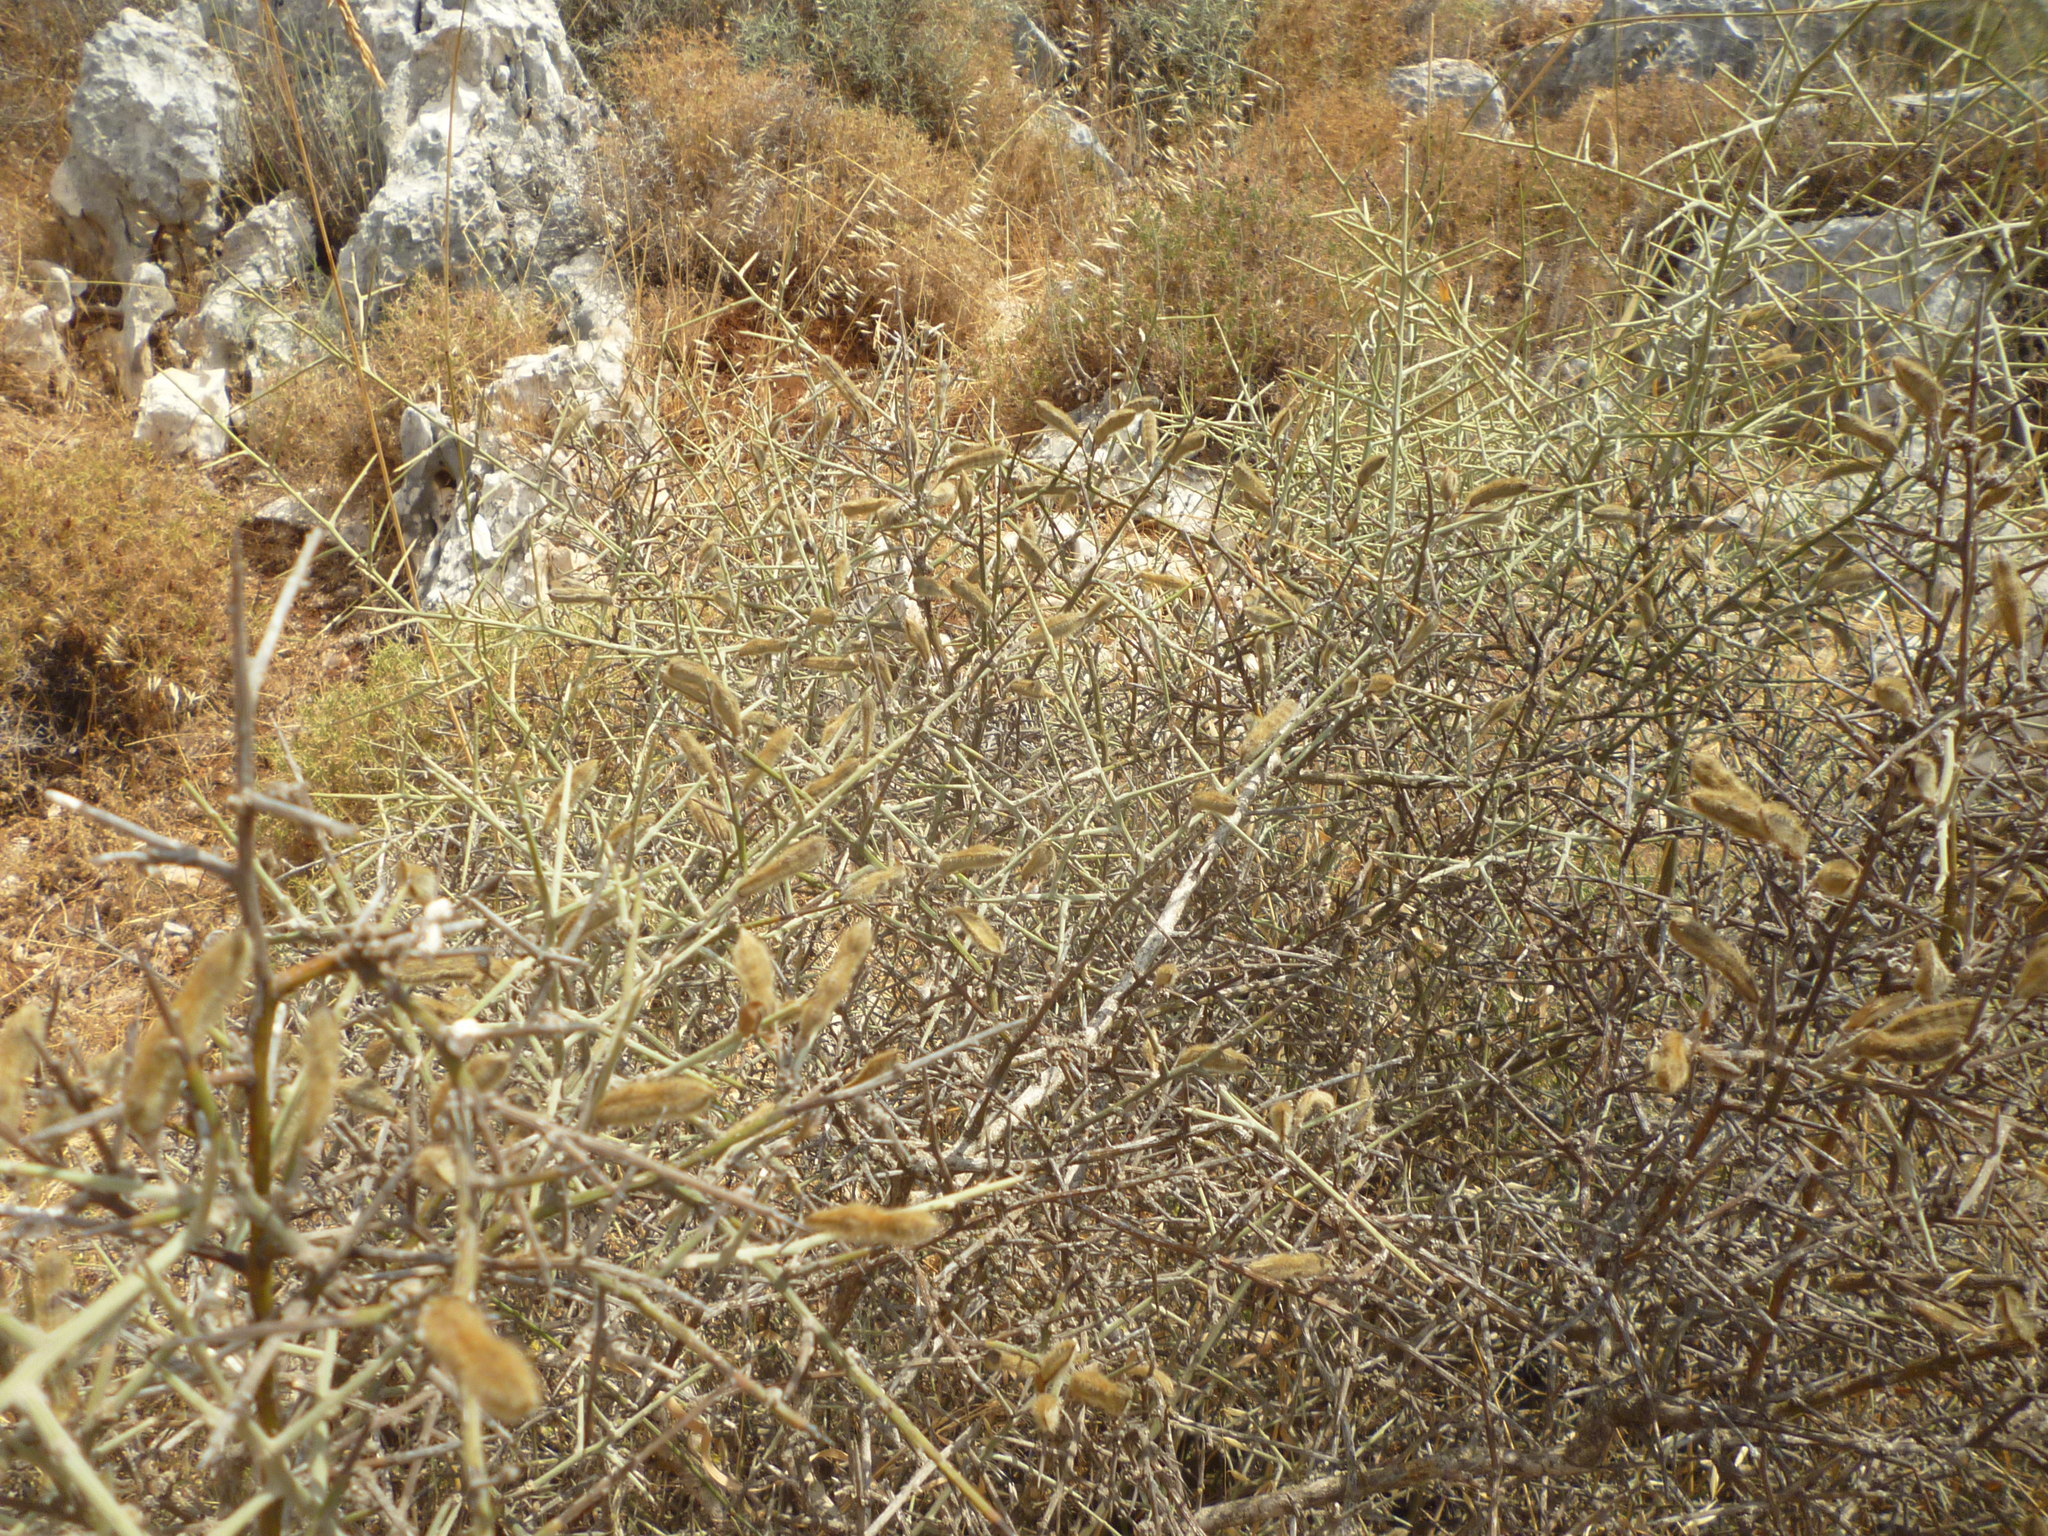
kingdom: Plantae
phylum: Tracheophyta
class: Magnoliopsida
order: Fabales
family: Fabaceae
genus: Calicotome
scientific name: Calicotome villosa
